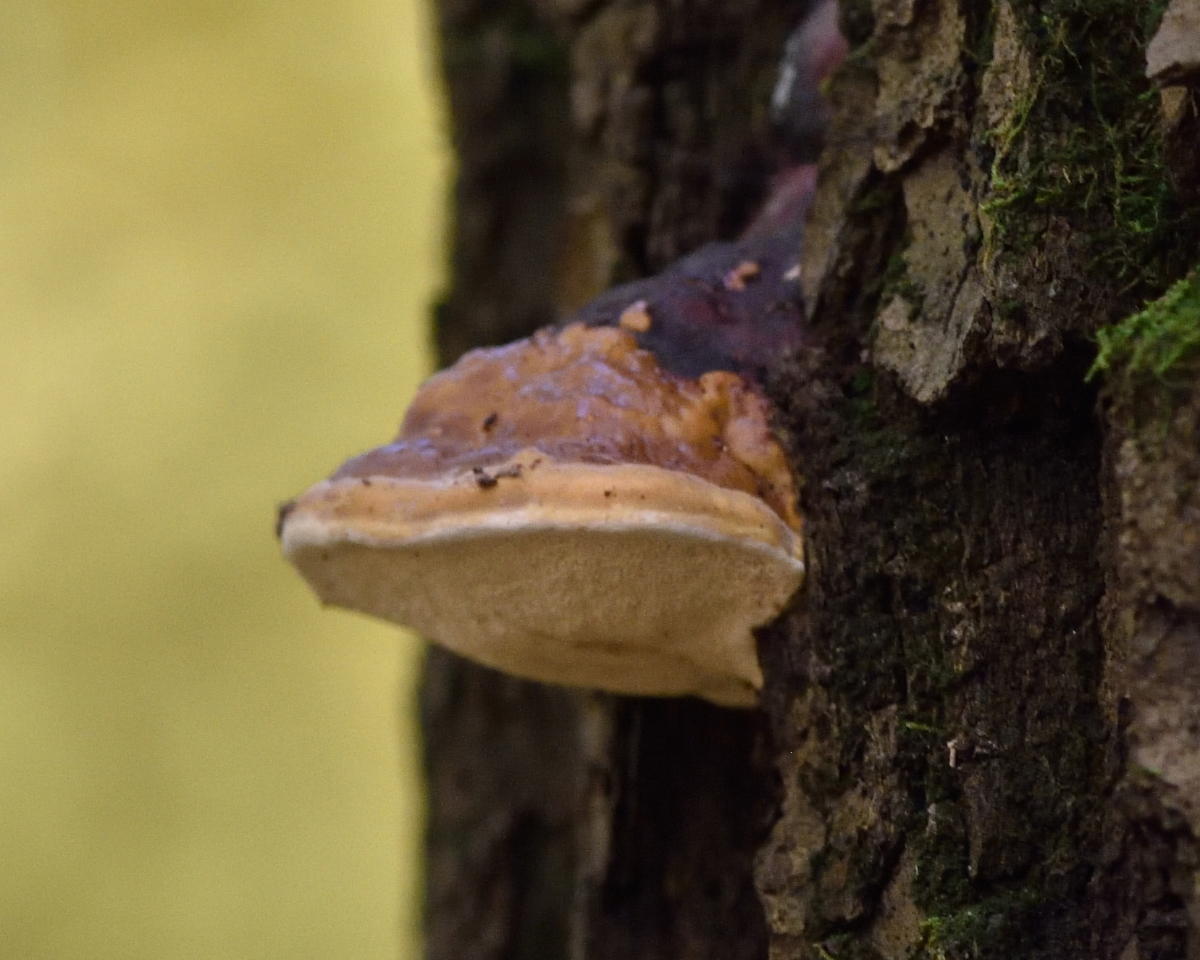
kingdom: Fungi
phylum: Basidiomycota
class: Agaricomycetes
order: Polyporales
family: Fomitopsidaceae
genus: Fomitopsis
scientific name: Fomitopsis pinicola
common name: Red-belted bracket
